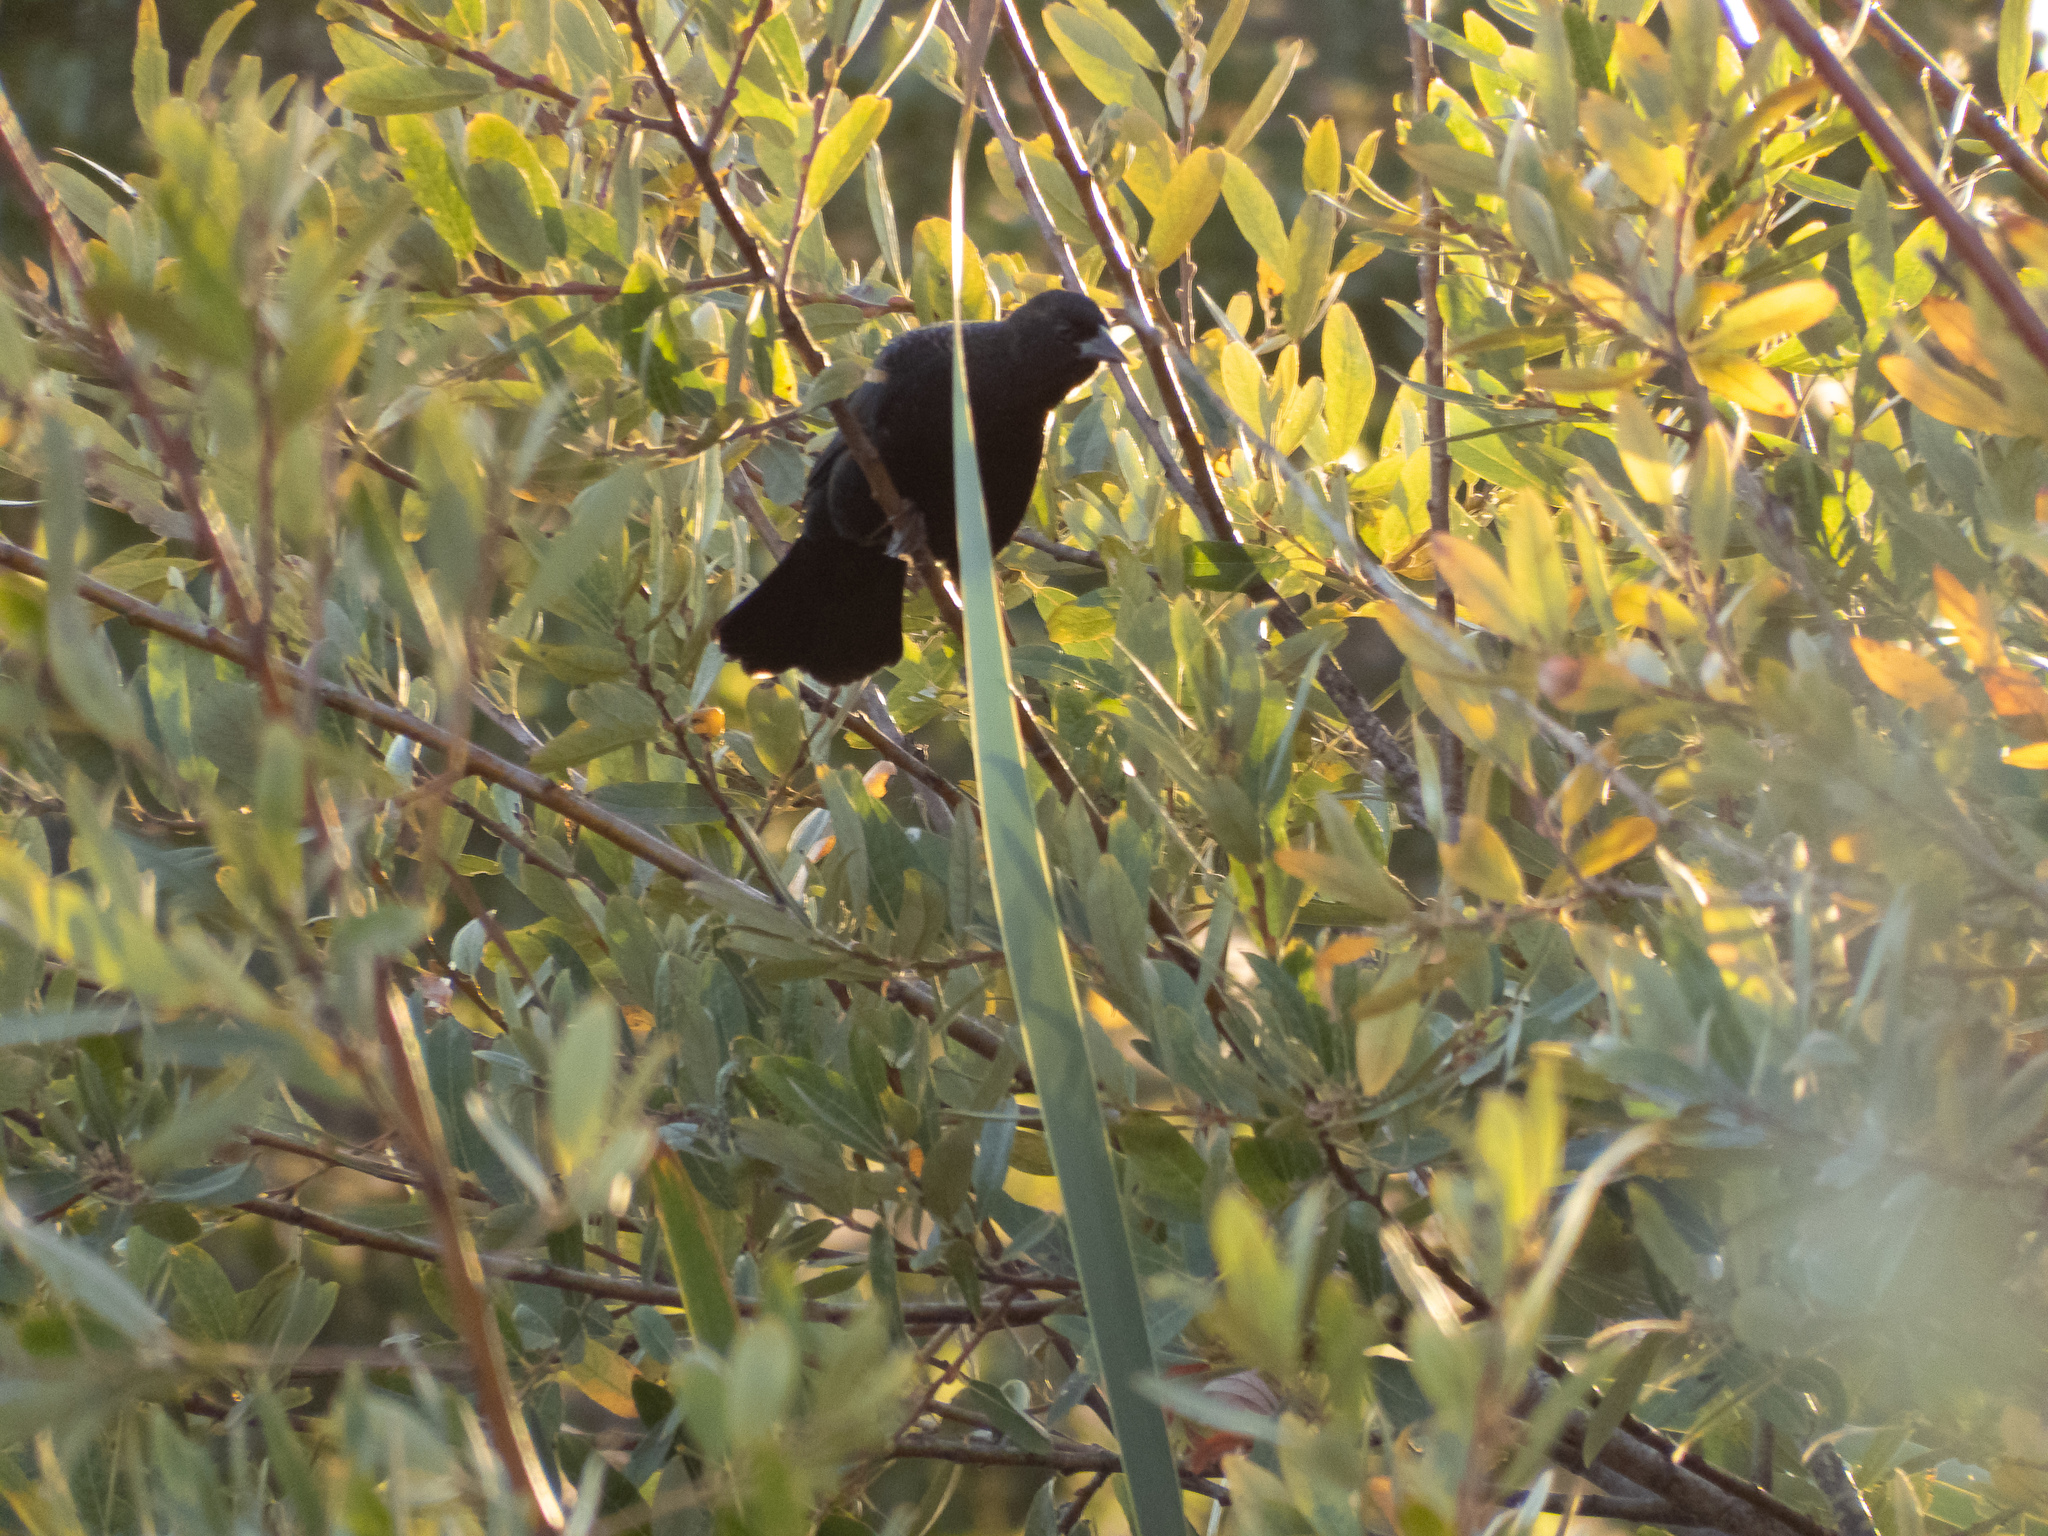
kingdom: Animalia
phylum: Chordata
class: Aves
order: Passeriformes
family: Icteridae
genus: Agelaius
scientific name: Agelaius phoeniceus
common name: Red-winged blackbird
